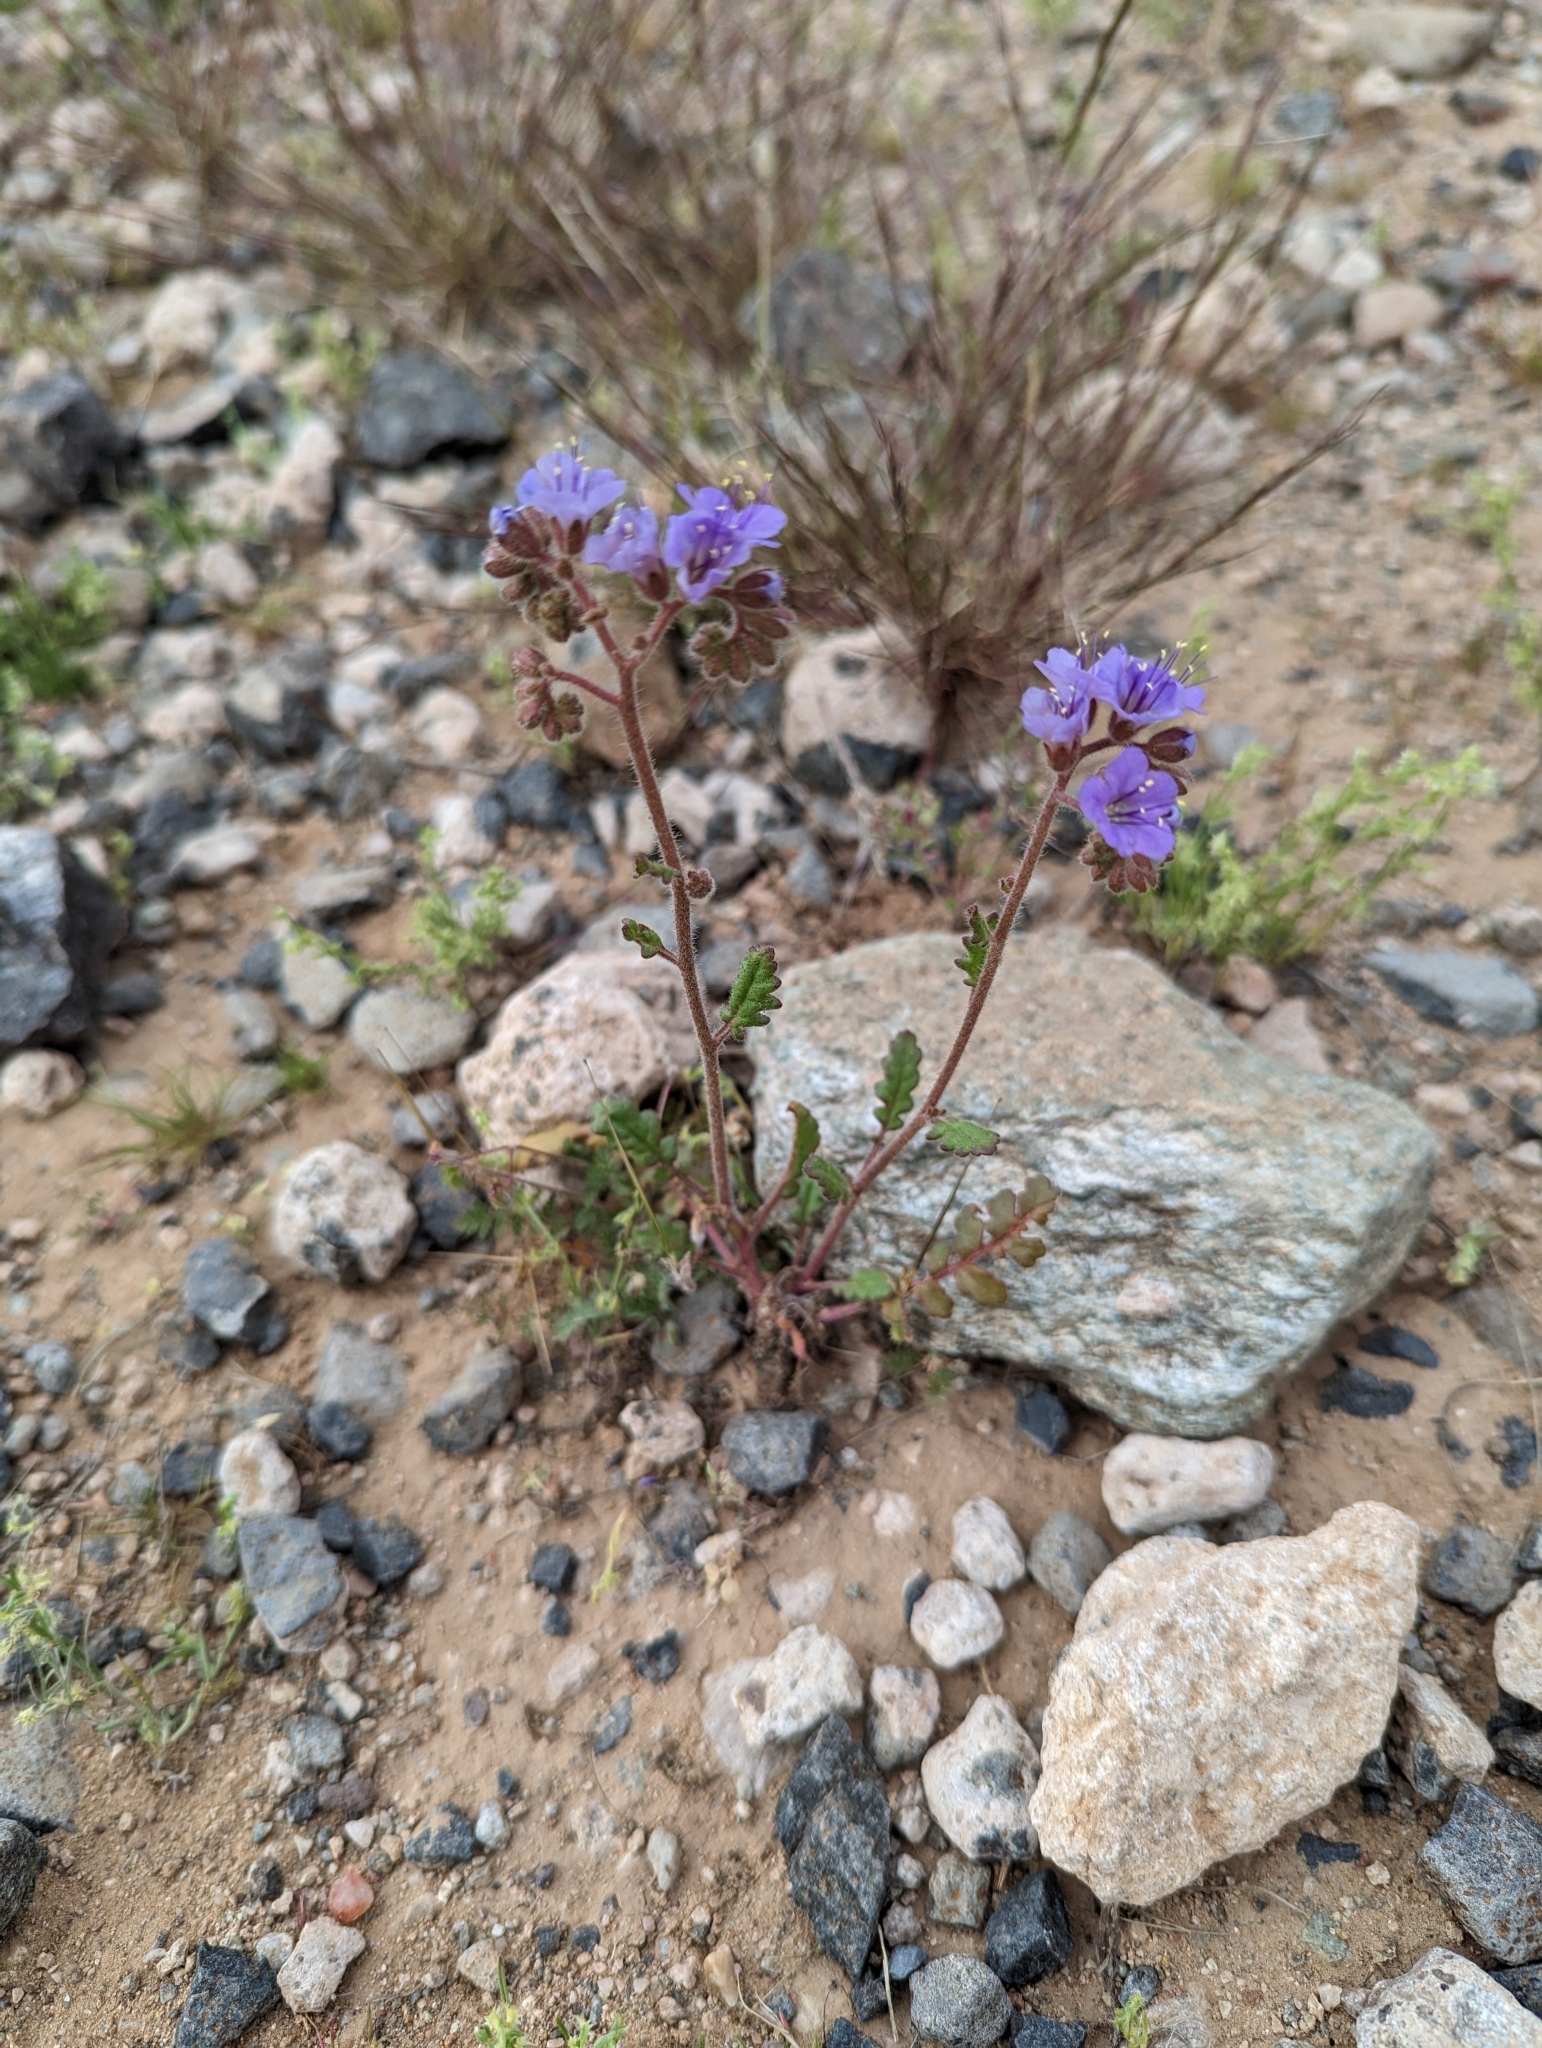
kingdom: Plantae
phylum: Tracheophyta
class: Magnoliopsida
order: Boraginales
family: Hydrophyllaceae
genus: Phacelia
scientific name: Phacelia crenulata
